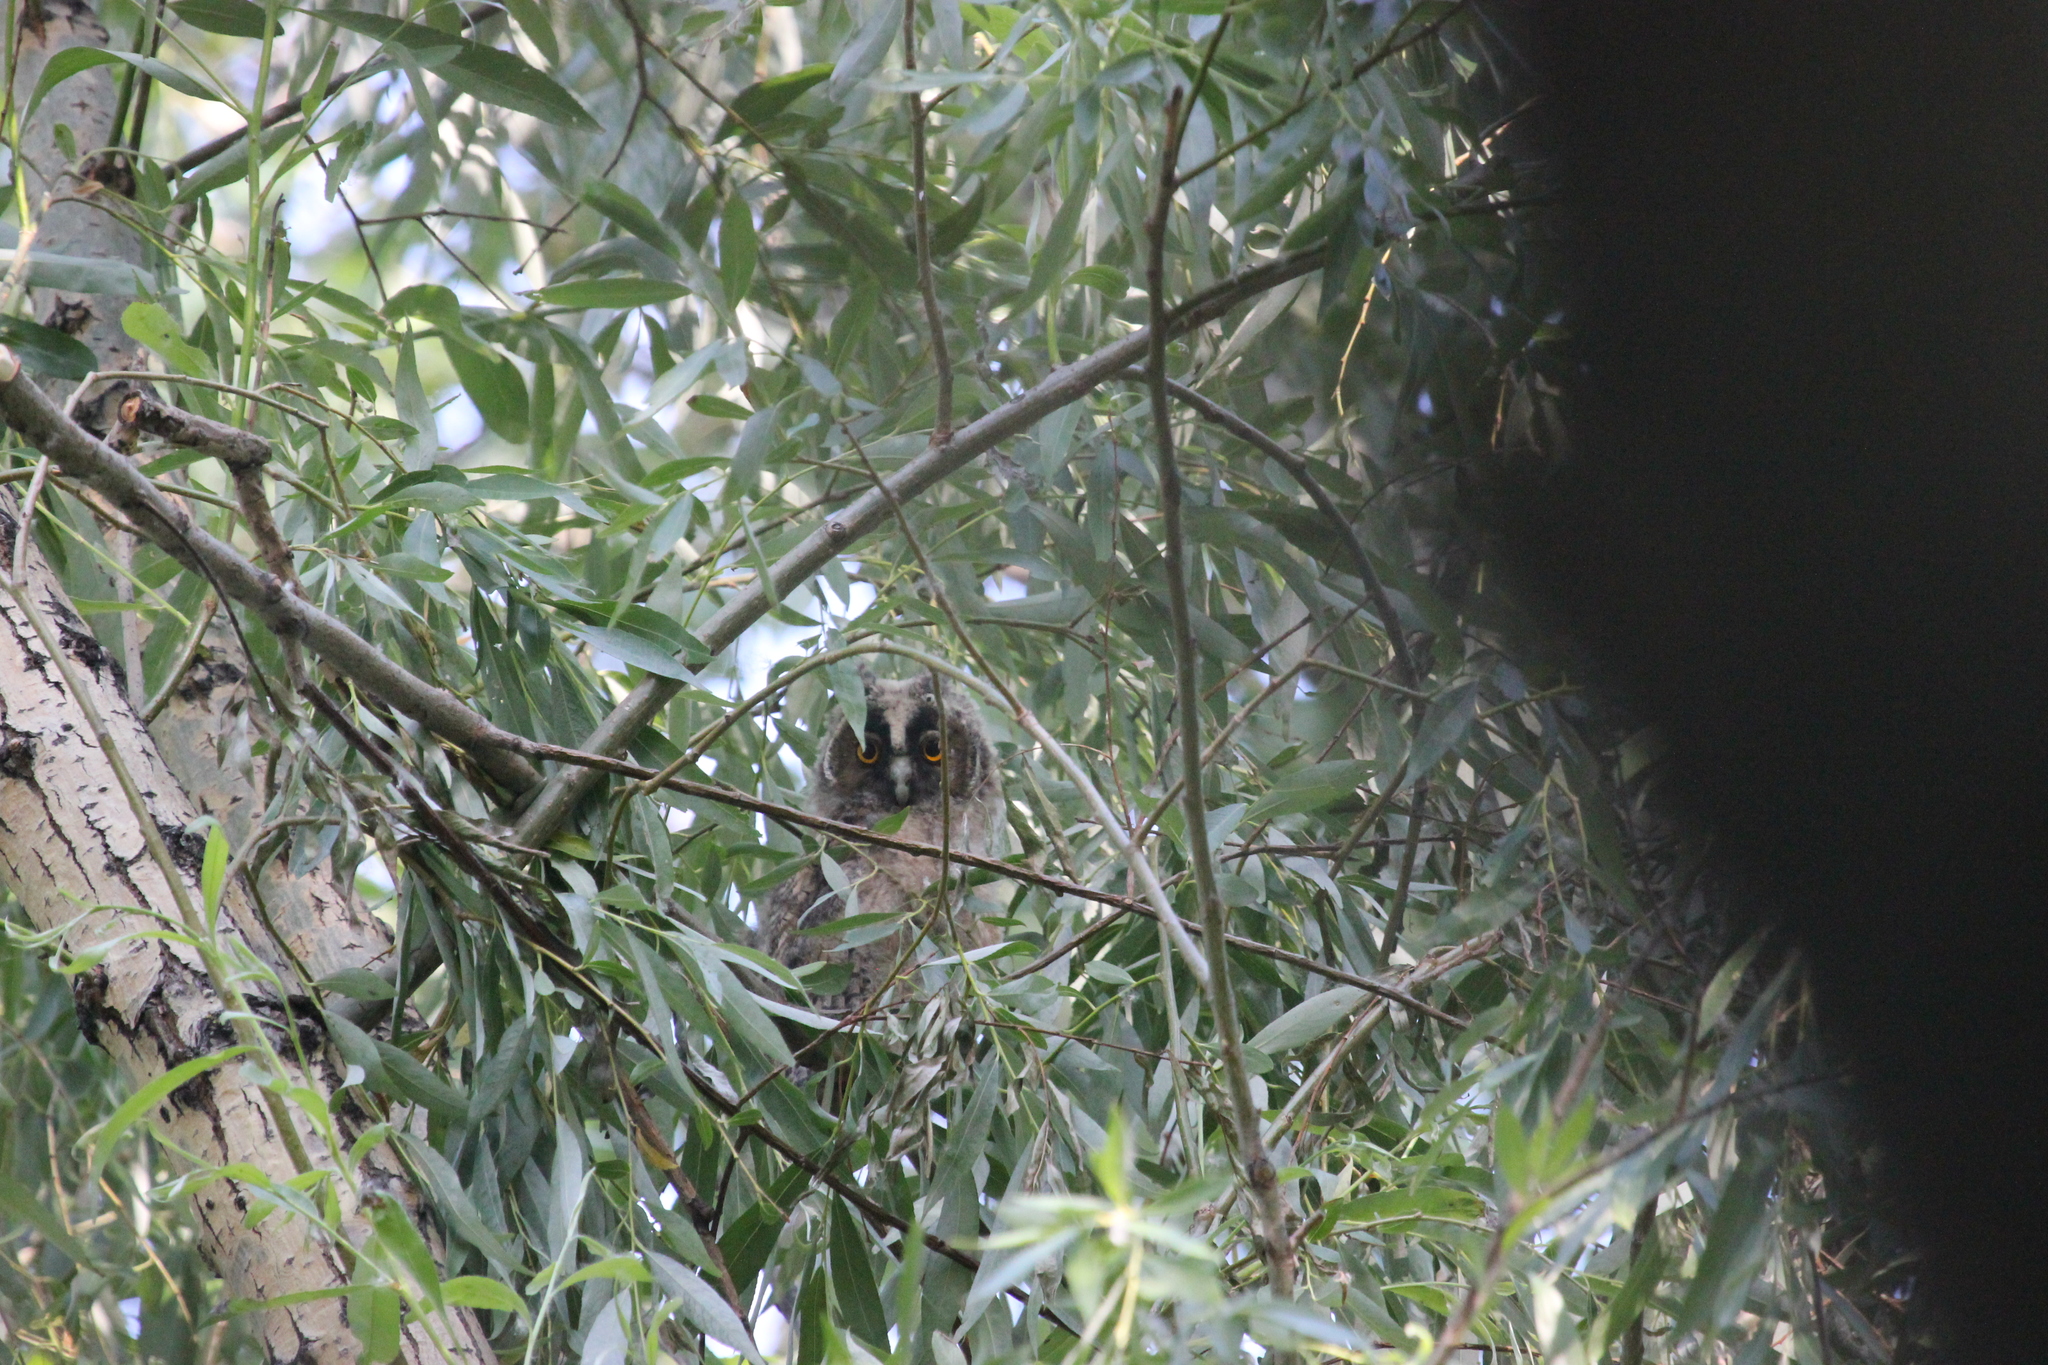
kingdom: Animalia
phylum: Chordata
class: Aves
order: Strigiformes
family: Strigidae
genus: Asio
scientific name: Asio otus
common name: Long-eared owl
